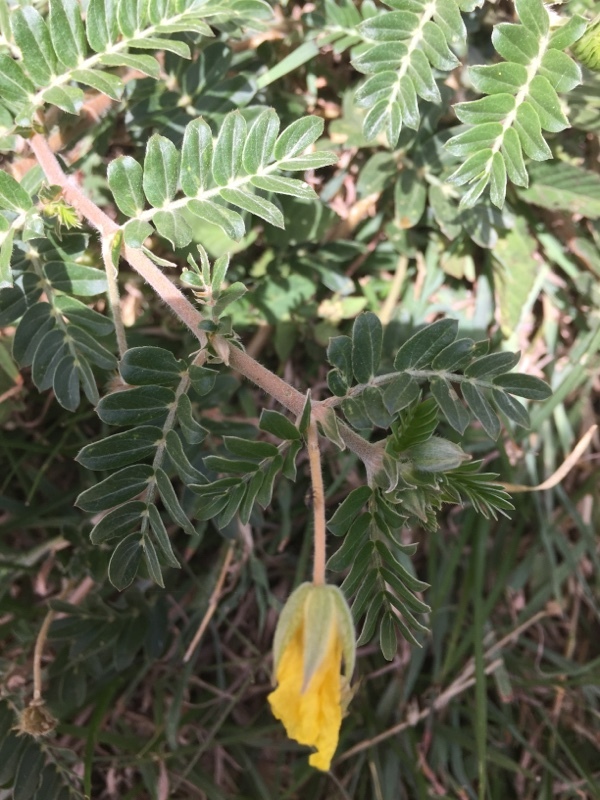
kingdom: Plantae
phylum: Tracheophyta
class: Magnoliopsida
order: Zygophyllales
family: Zygophyllaceae
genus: Tribulus
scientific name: Tribulus terrestris
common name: Puncturevine
